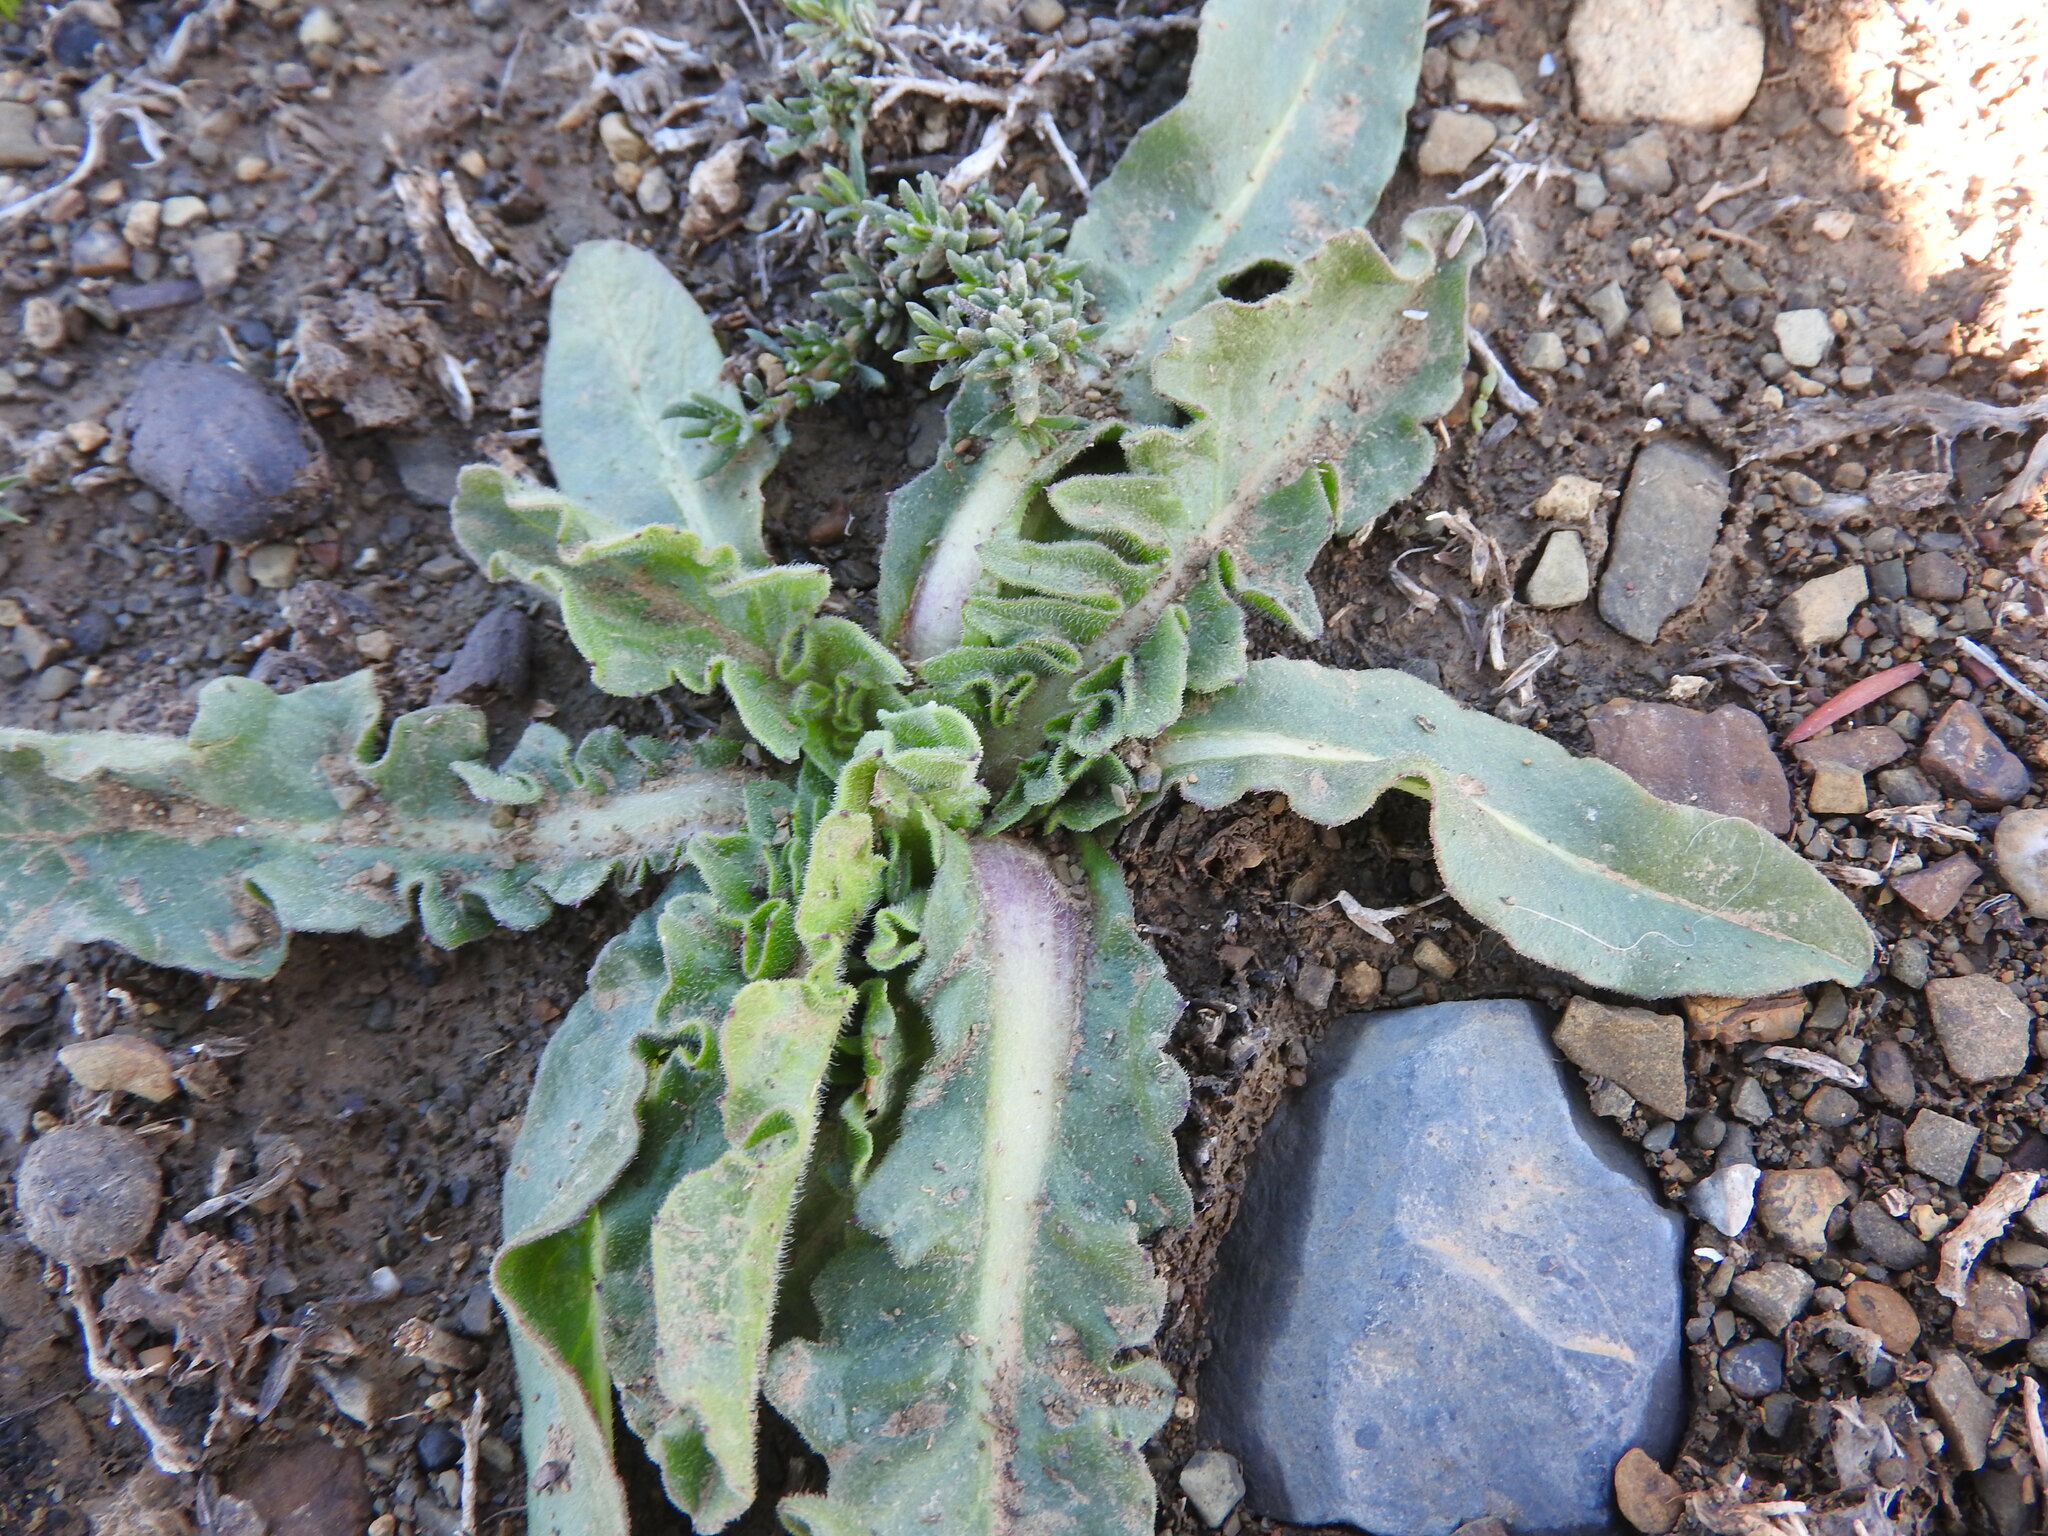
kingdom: Plantae
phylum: Tracheophyta
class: Magnoliopsida
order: Asterales
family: Asteraceae
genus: Urospermum
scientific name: Urospermum dalechampii
